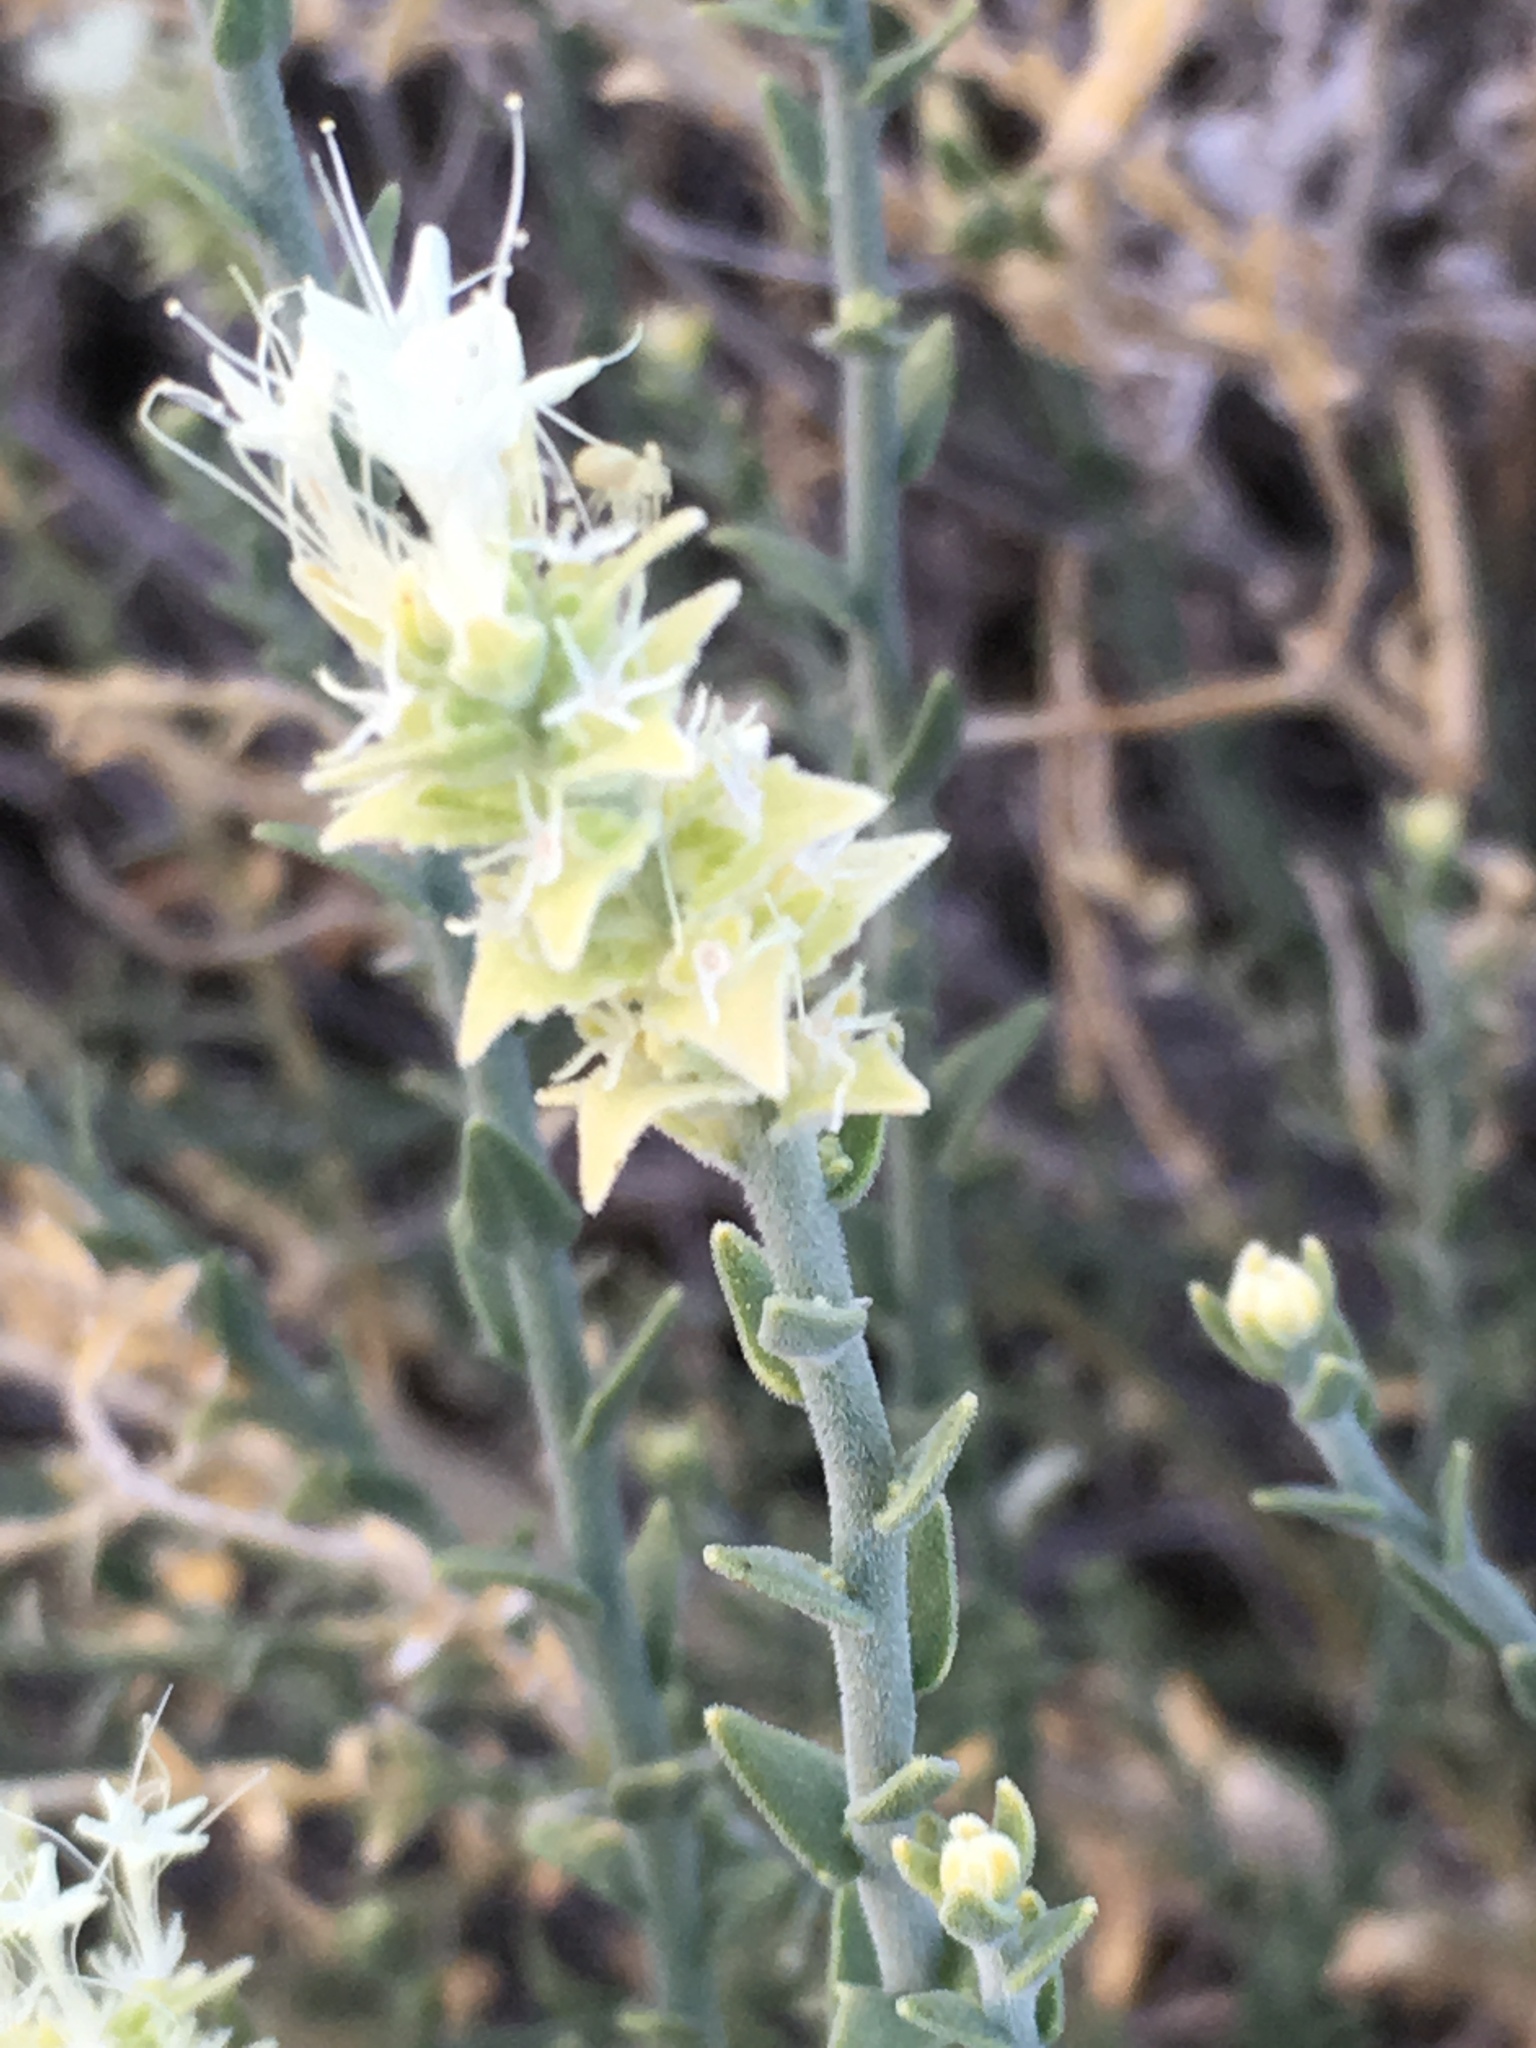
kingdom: Plantae
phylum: Tracheophyta
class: Magnoliopsida
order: Cornales
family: Loasaceae
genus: Petalonyx
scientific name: Petalonyx thurberi
